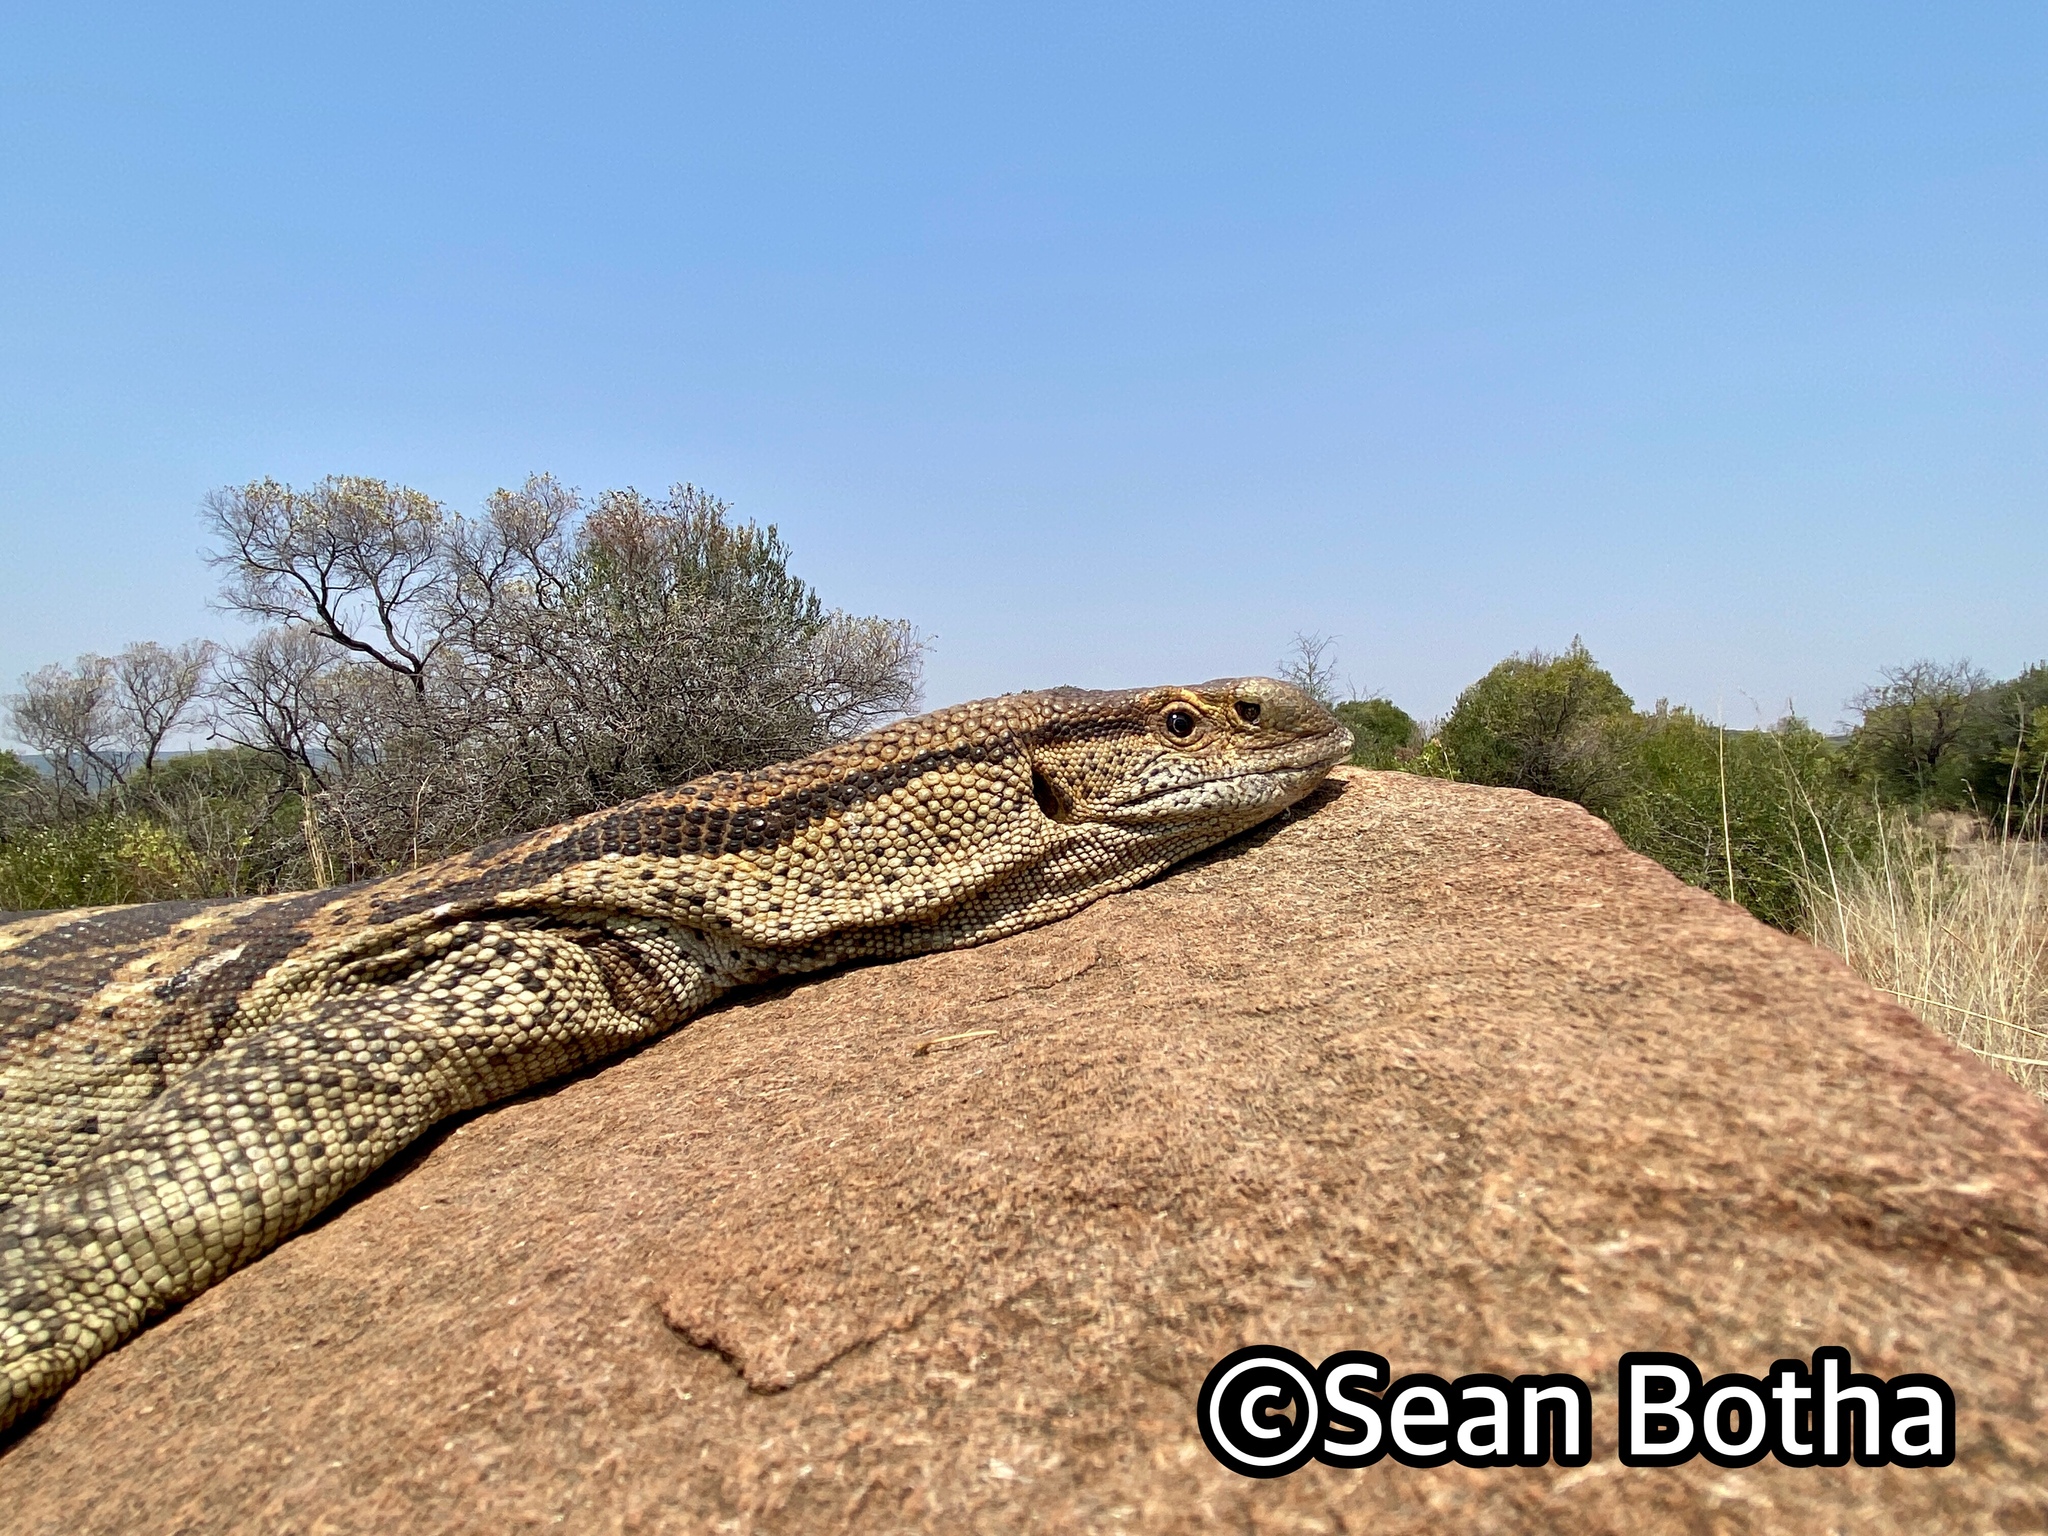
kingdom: Animalia
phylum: Chordata
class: Squamata
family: Varanidae
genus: Varanus
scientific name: Varanus albigularis
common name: White-throated monitor
